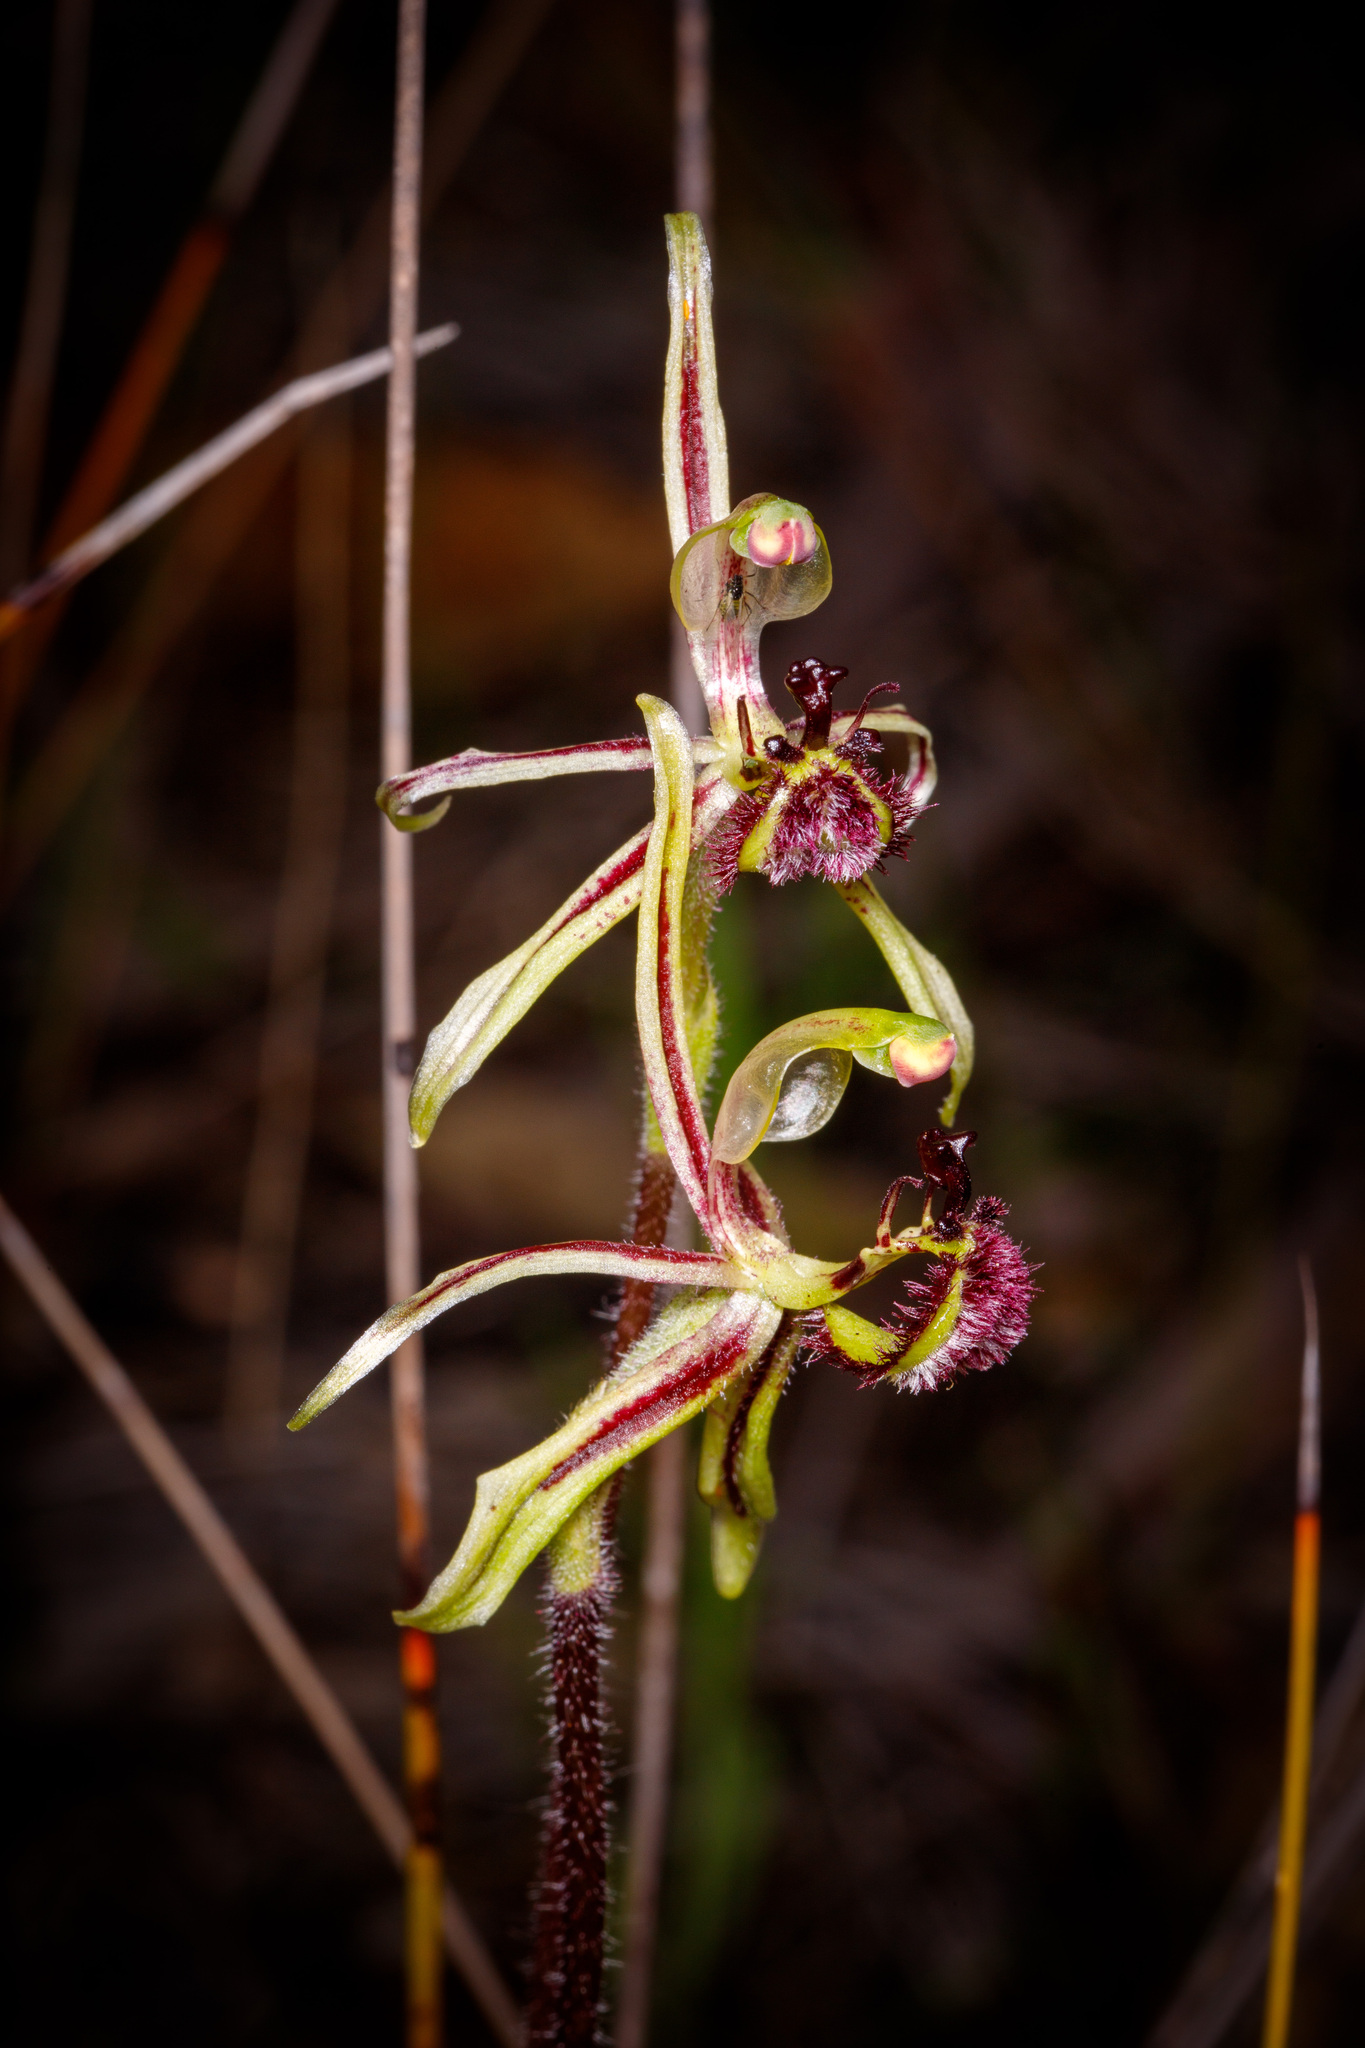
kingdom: Plantae
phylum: Tracheophyta
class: Liliopsida
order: Asparagales
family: Orchidaceae
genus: Caladenia
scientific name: Caladenia barbarossa
